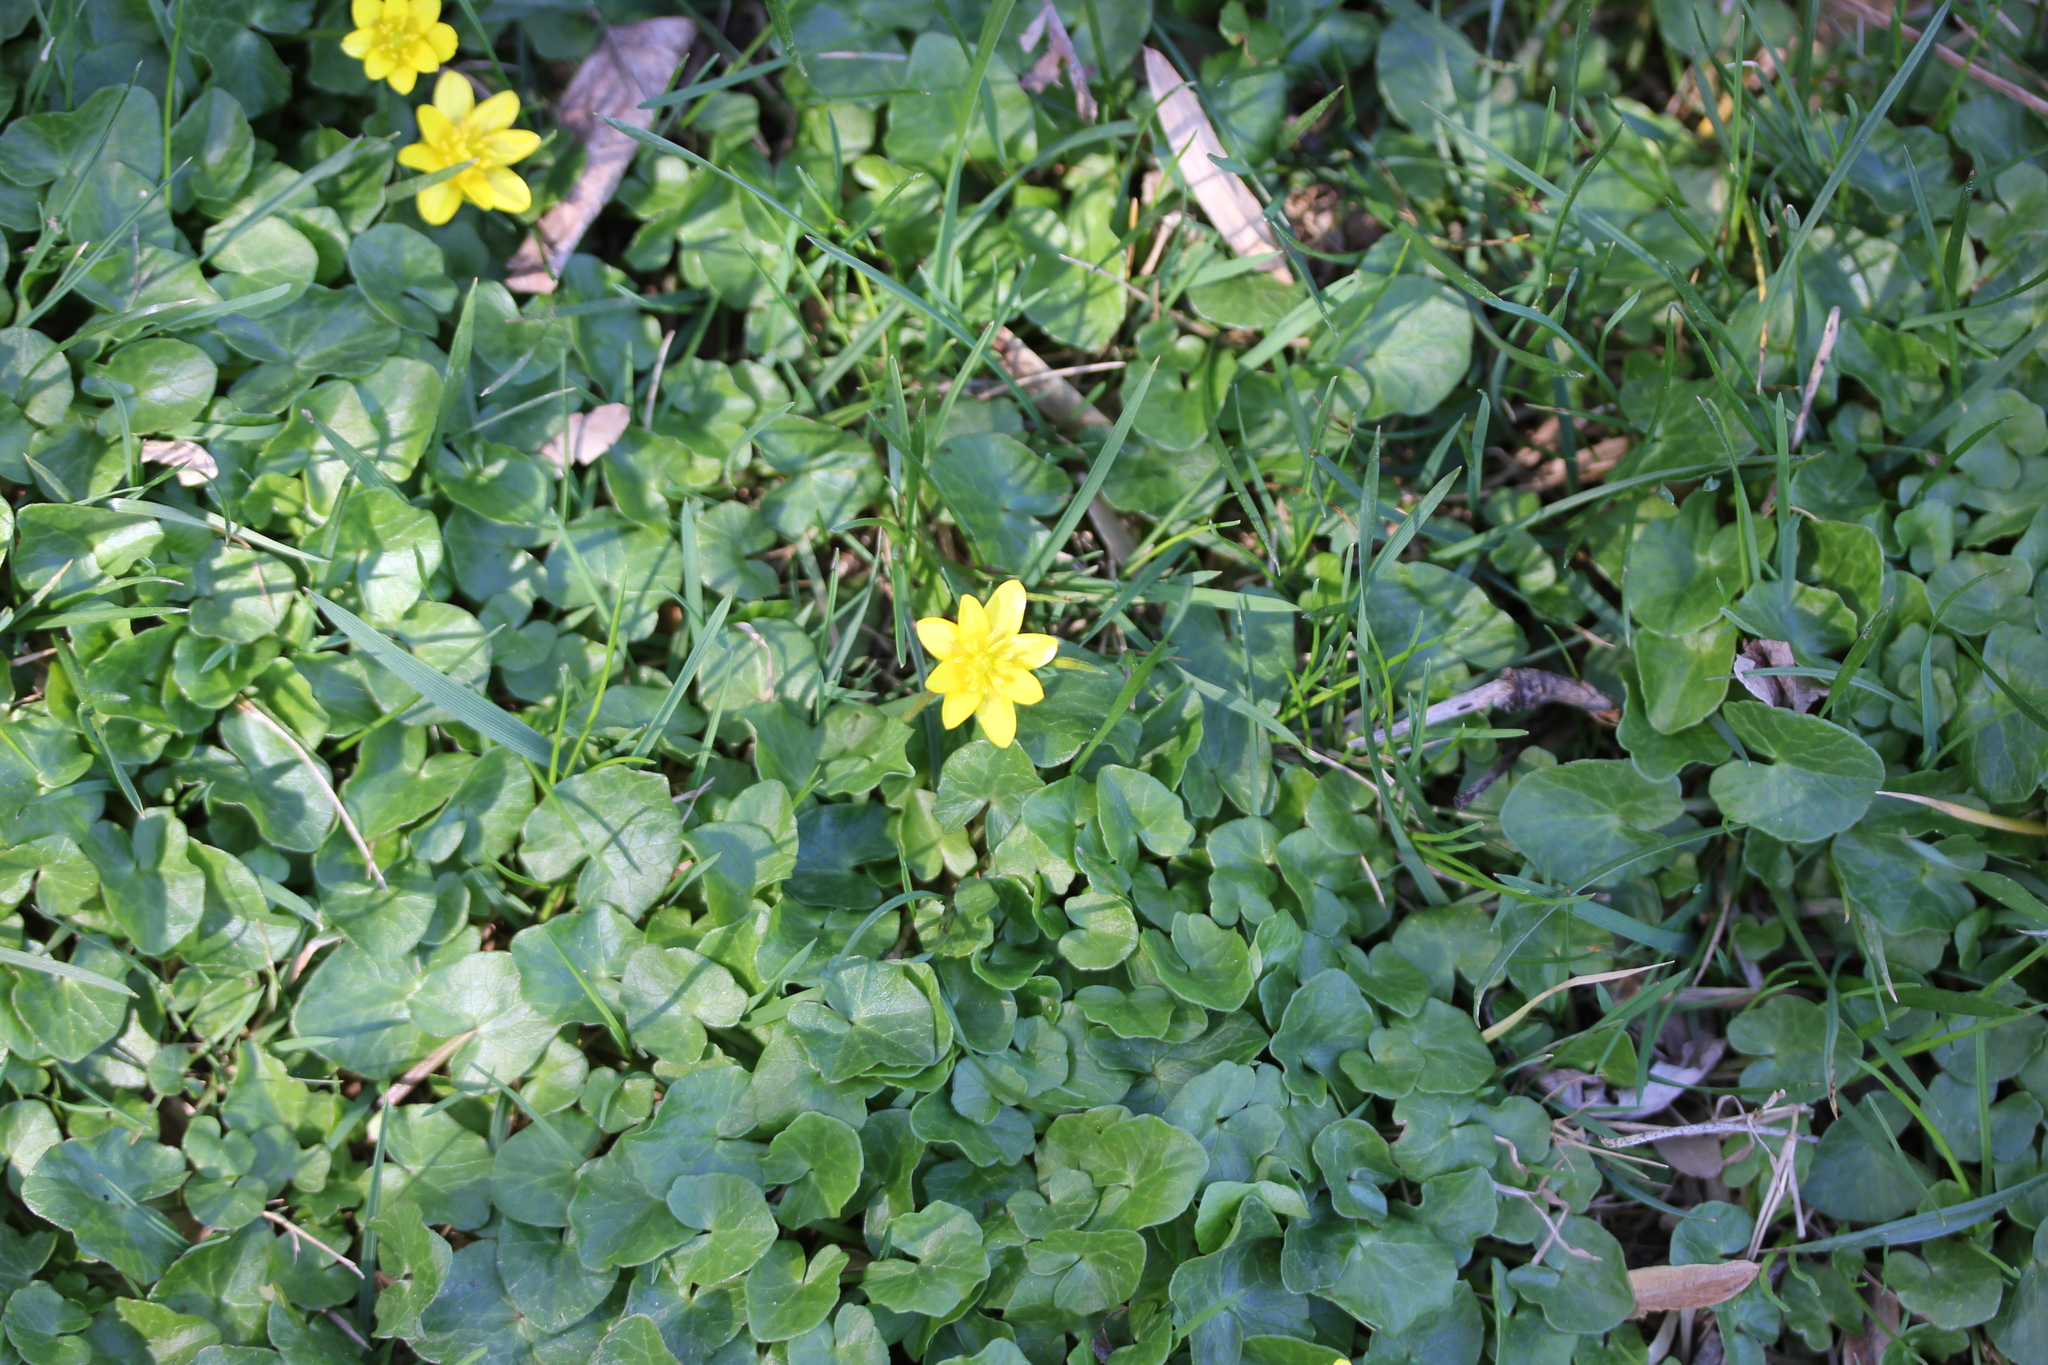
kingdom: Plantae
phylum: Tracheophyta
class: Magnoliopsida
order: Ranunculales
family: Ranunculaceae
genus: Ficaria
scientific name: Ficaria verna
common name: Lesser celandine
